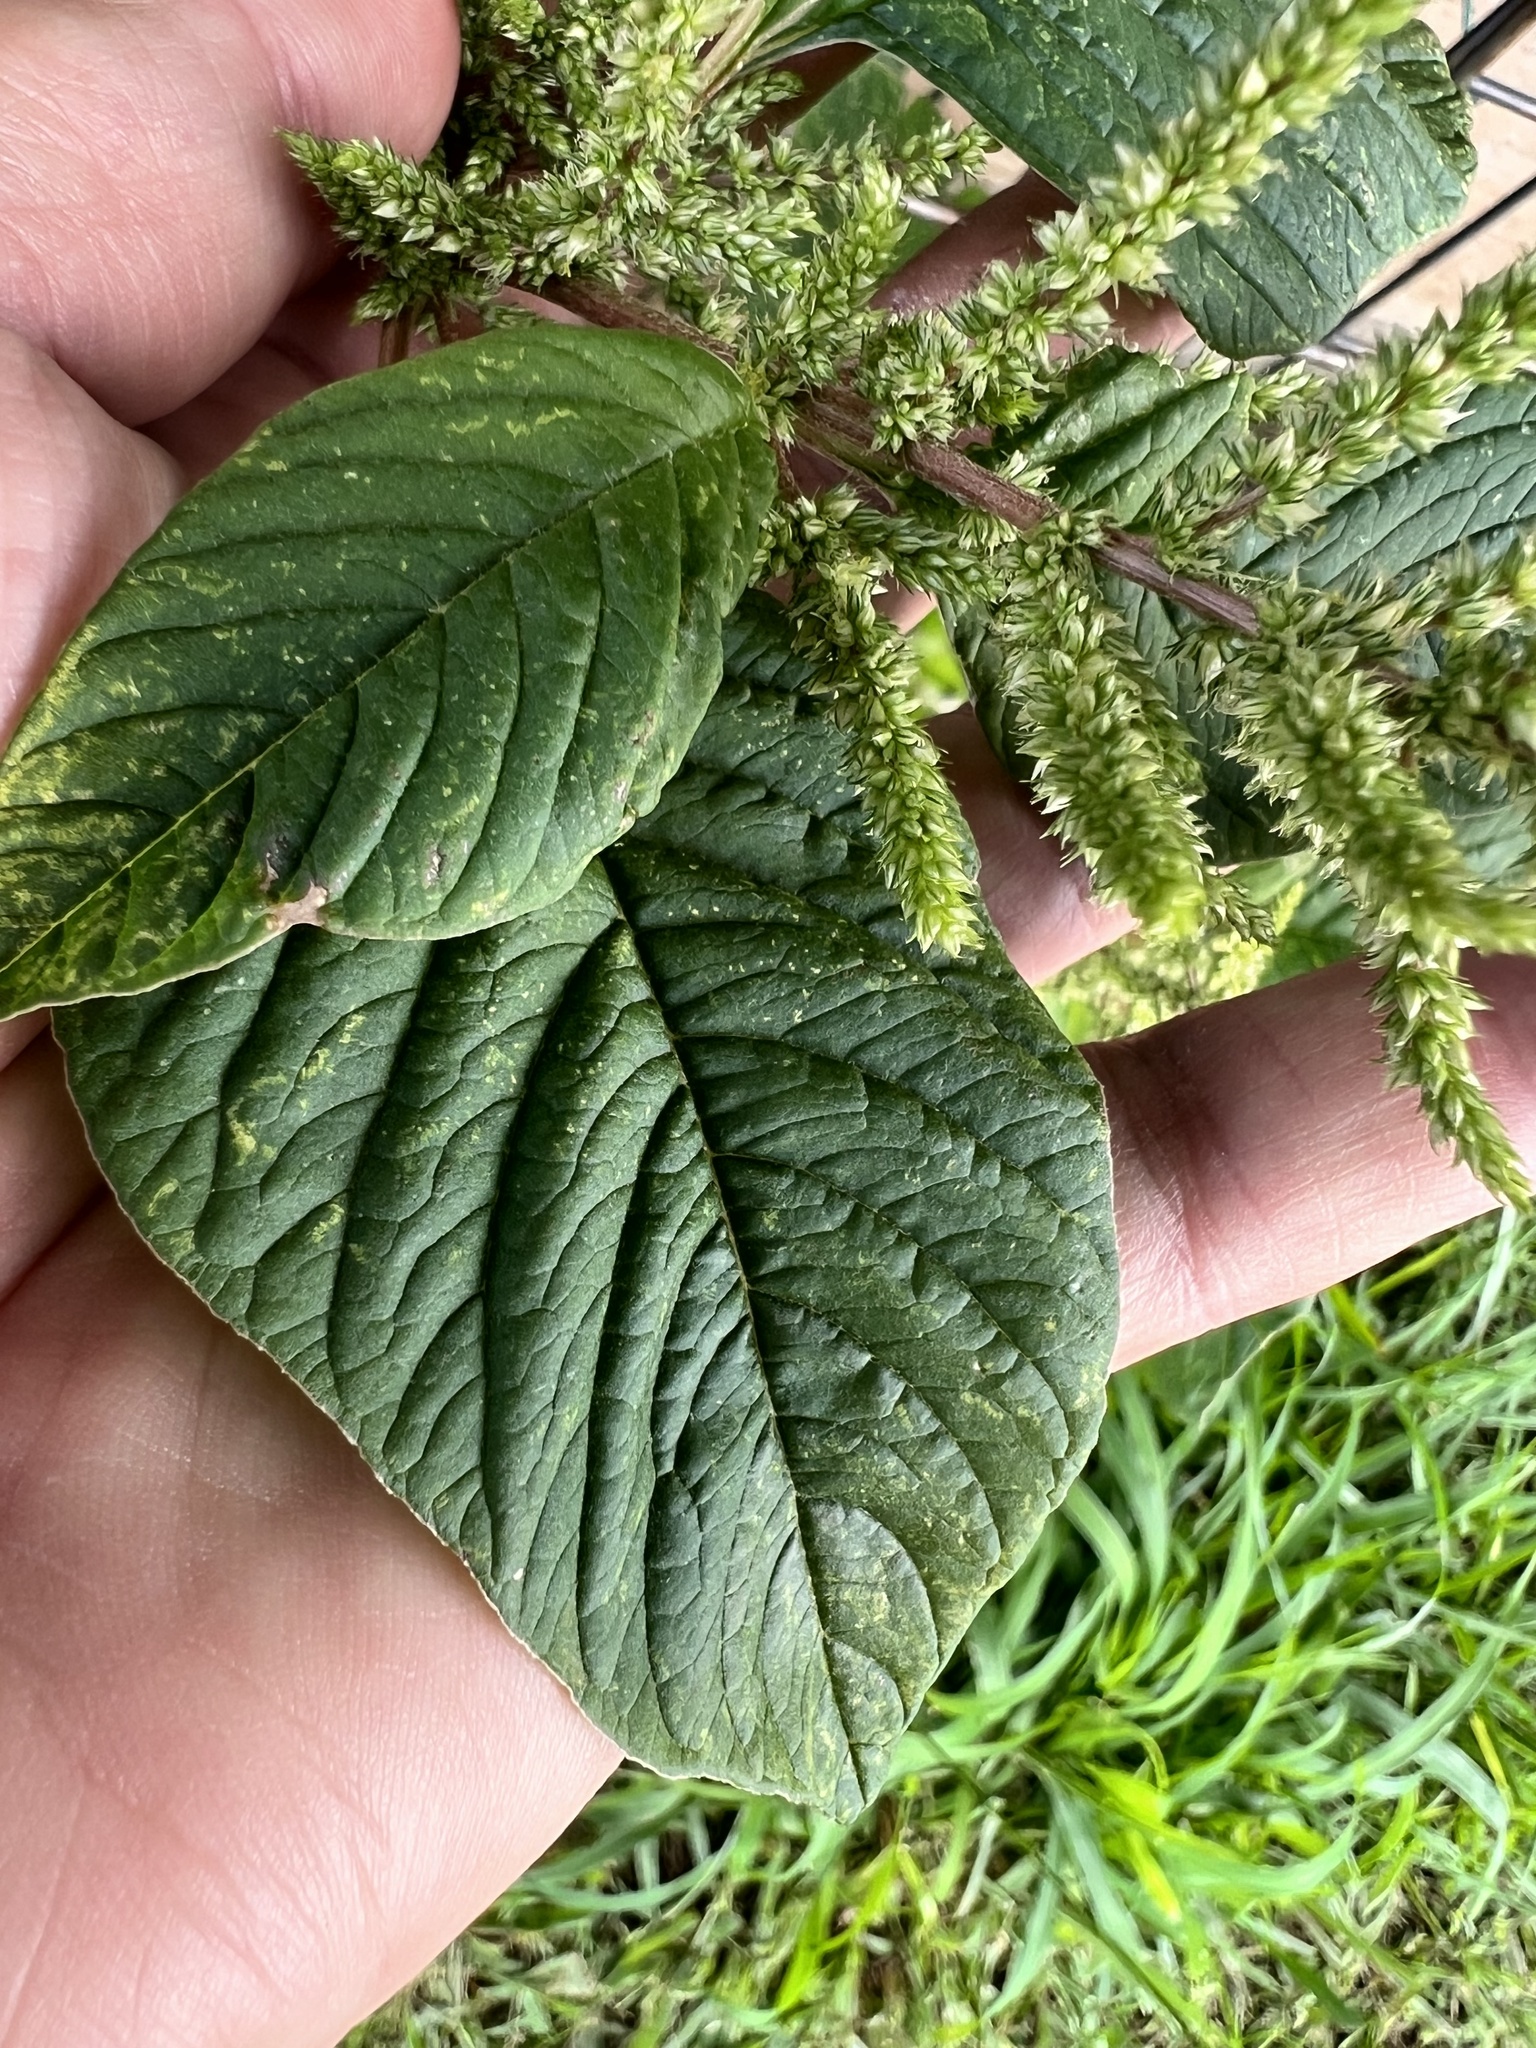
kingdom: Plantae
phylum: Tracheophyta
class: Magnoliopsida
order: Caryophyllales
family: Amaranthaceae
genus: Amaranthus
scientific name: Amaranthus viridis
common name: Slender amaranth
